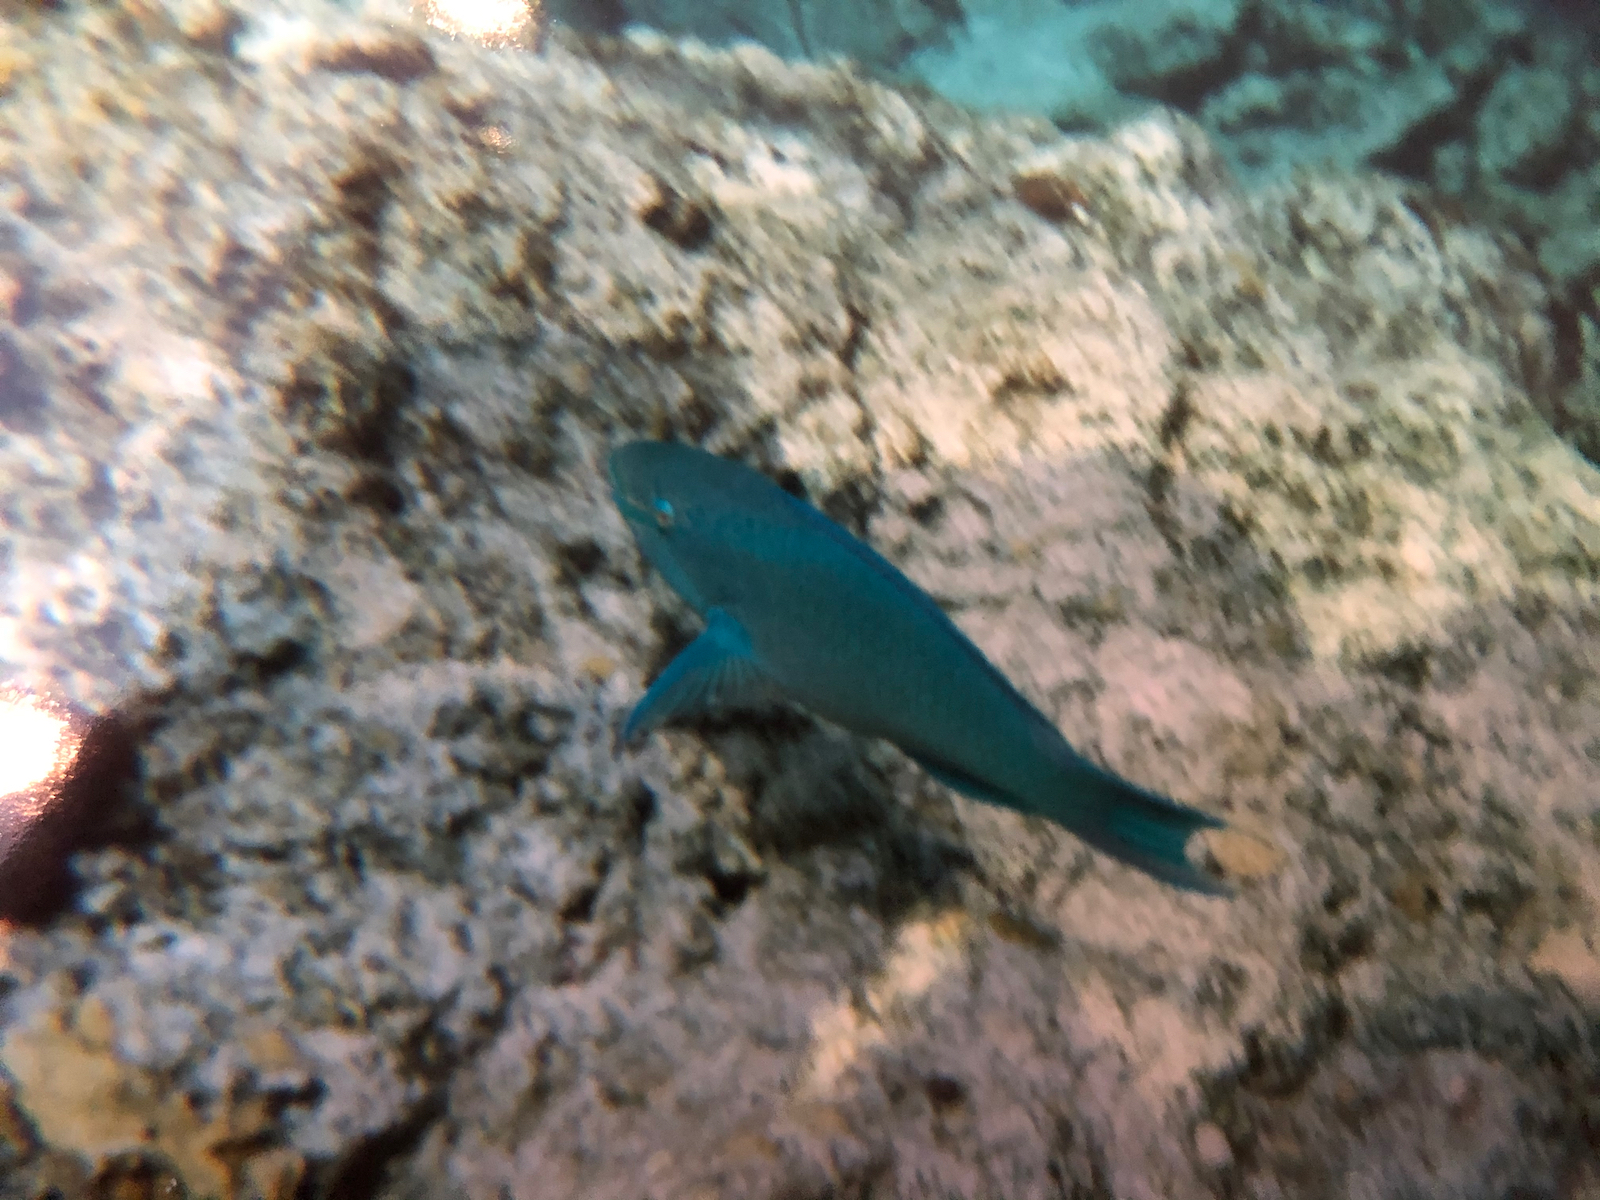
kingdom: Animalia
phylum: Chordata
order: Perciformes
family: Scaridae
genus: Scarus
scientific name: Scarus vetula
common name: Queen parrotfish
